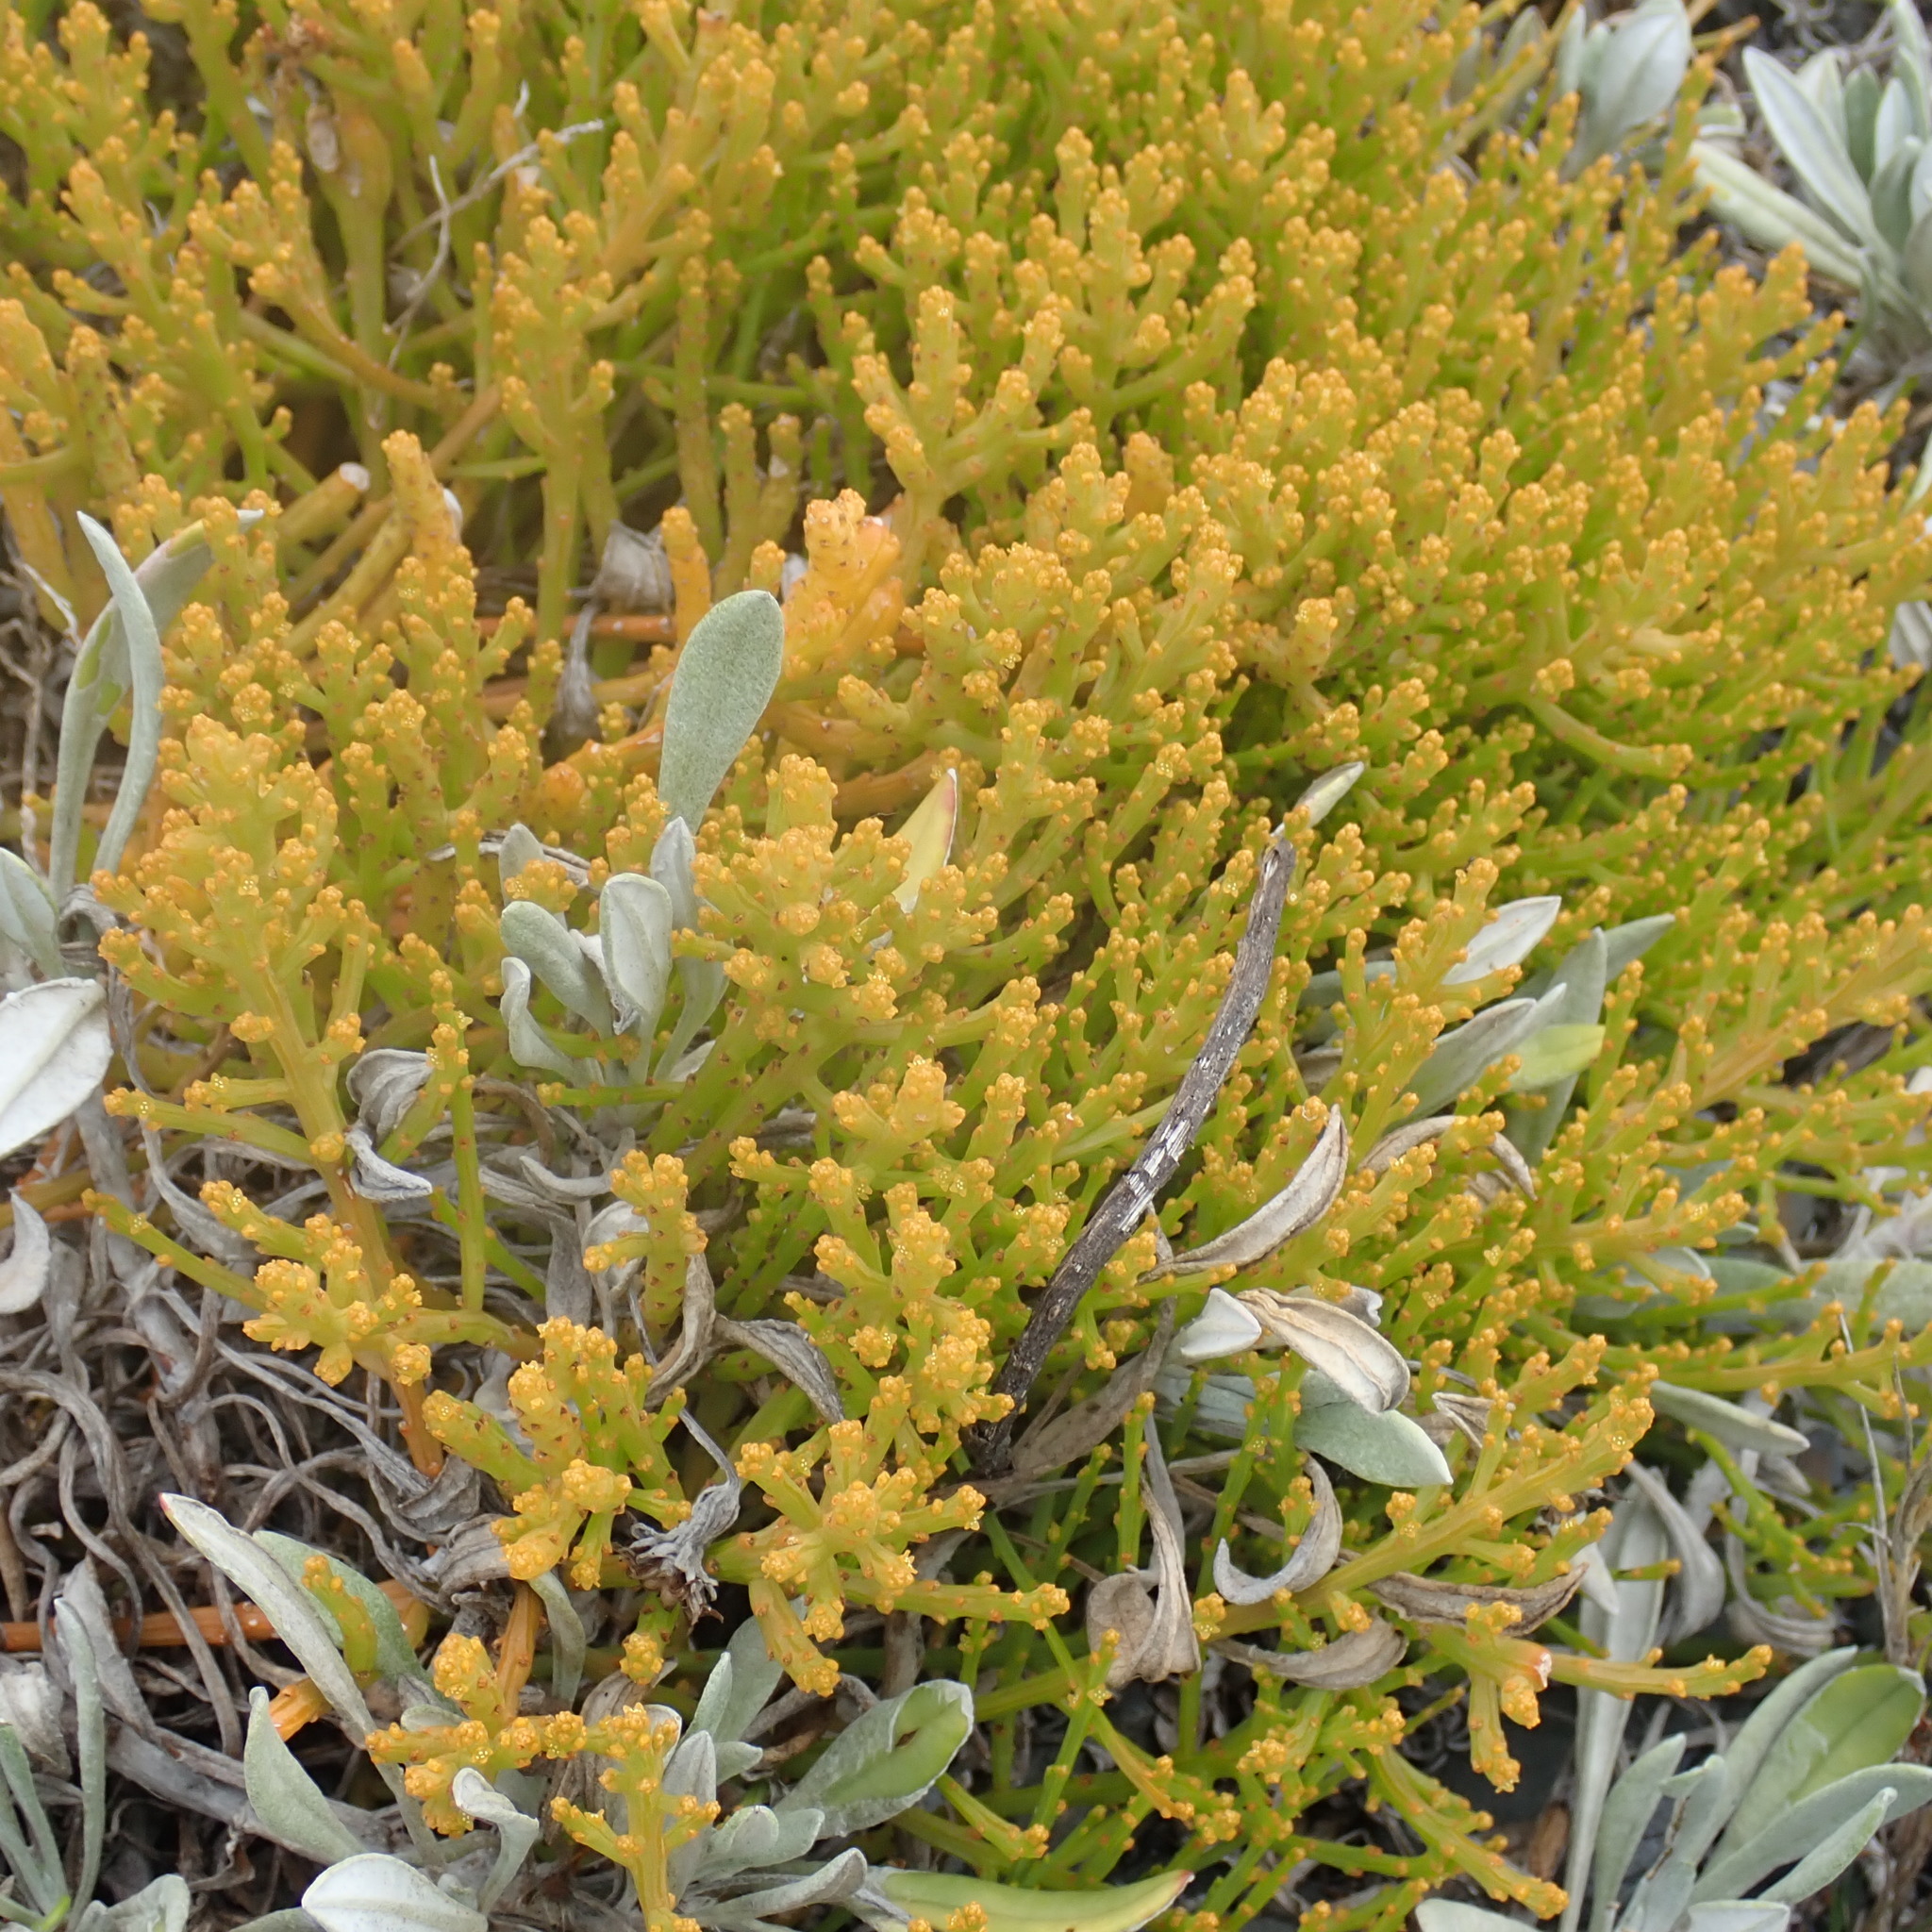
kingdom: Plantae
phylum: Tracheophyta
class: Magnoliopsida
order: Santalales
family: Thesiaceae
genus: Thesium
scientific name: Thesium fragile
